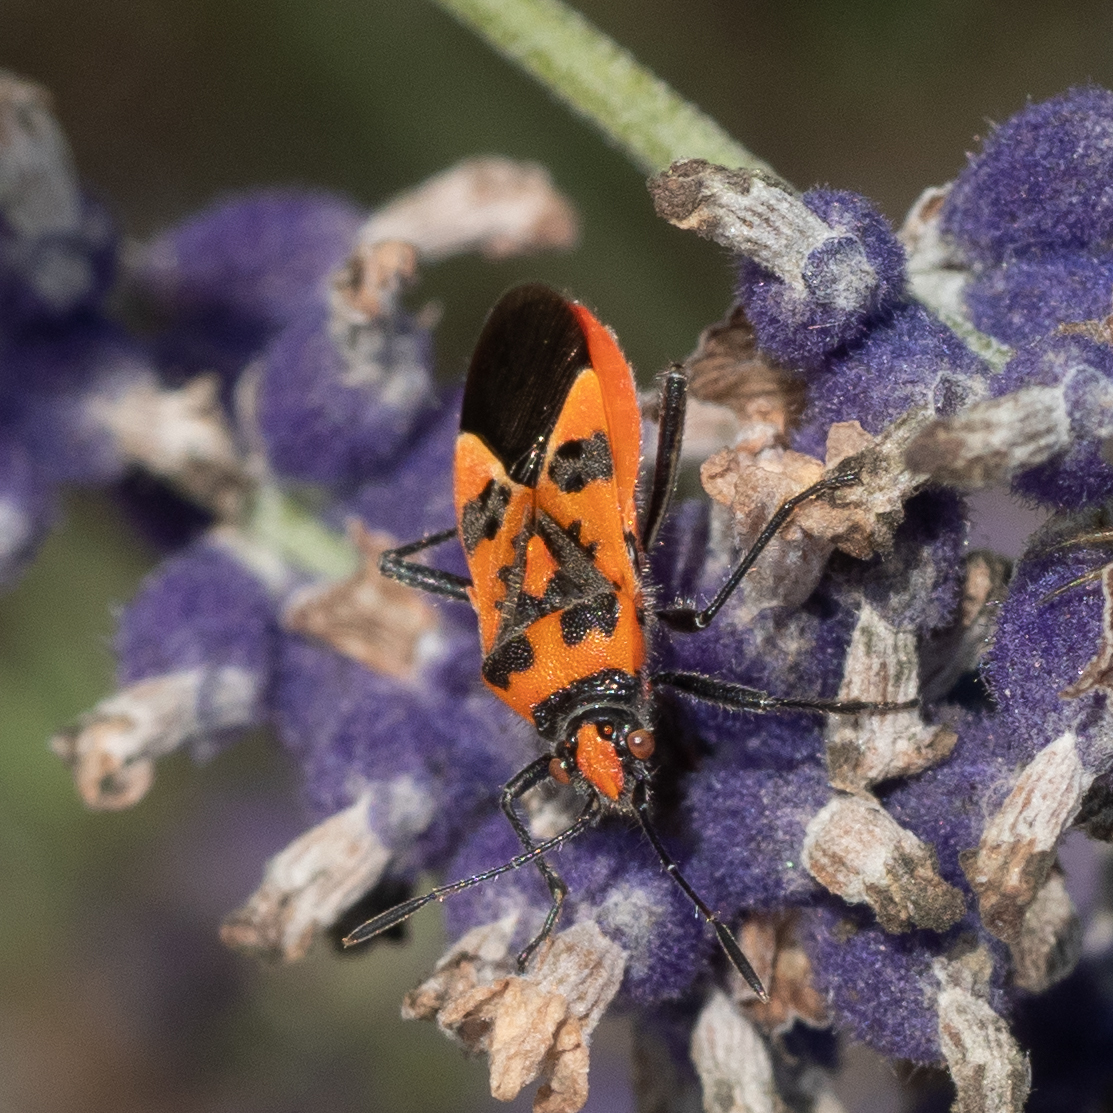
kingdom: Animalia
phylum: Arthropoda
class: Insecta
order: Hemiptera
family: Rhopalidae
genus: Corizus
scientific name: Corizus hyoscyami
